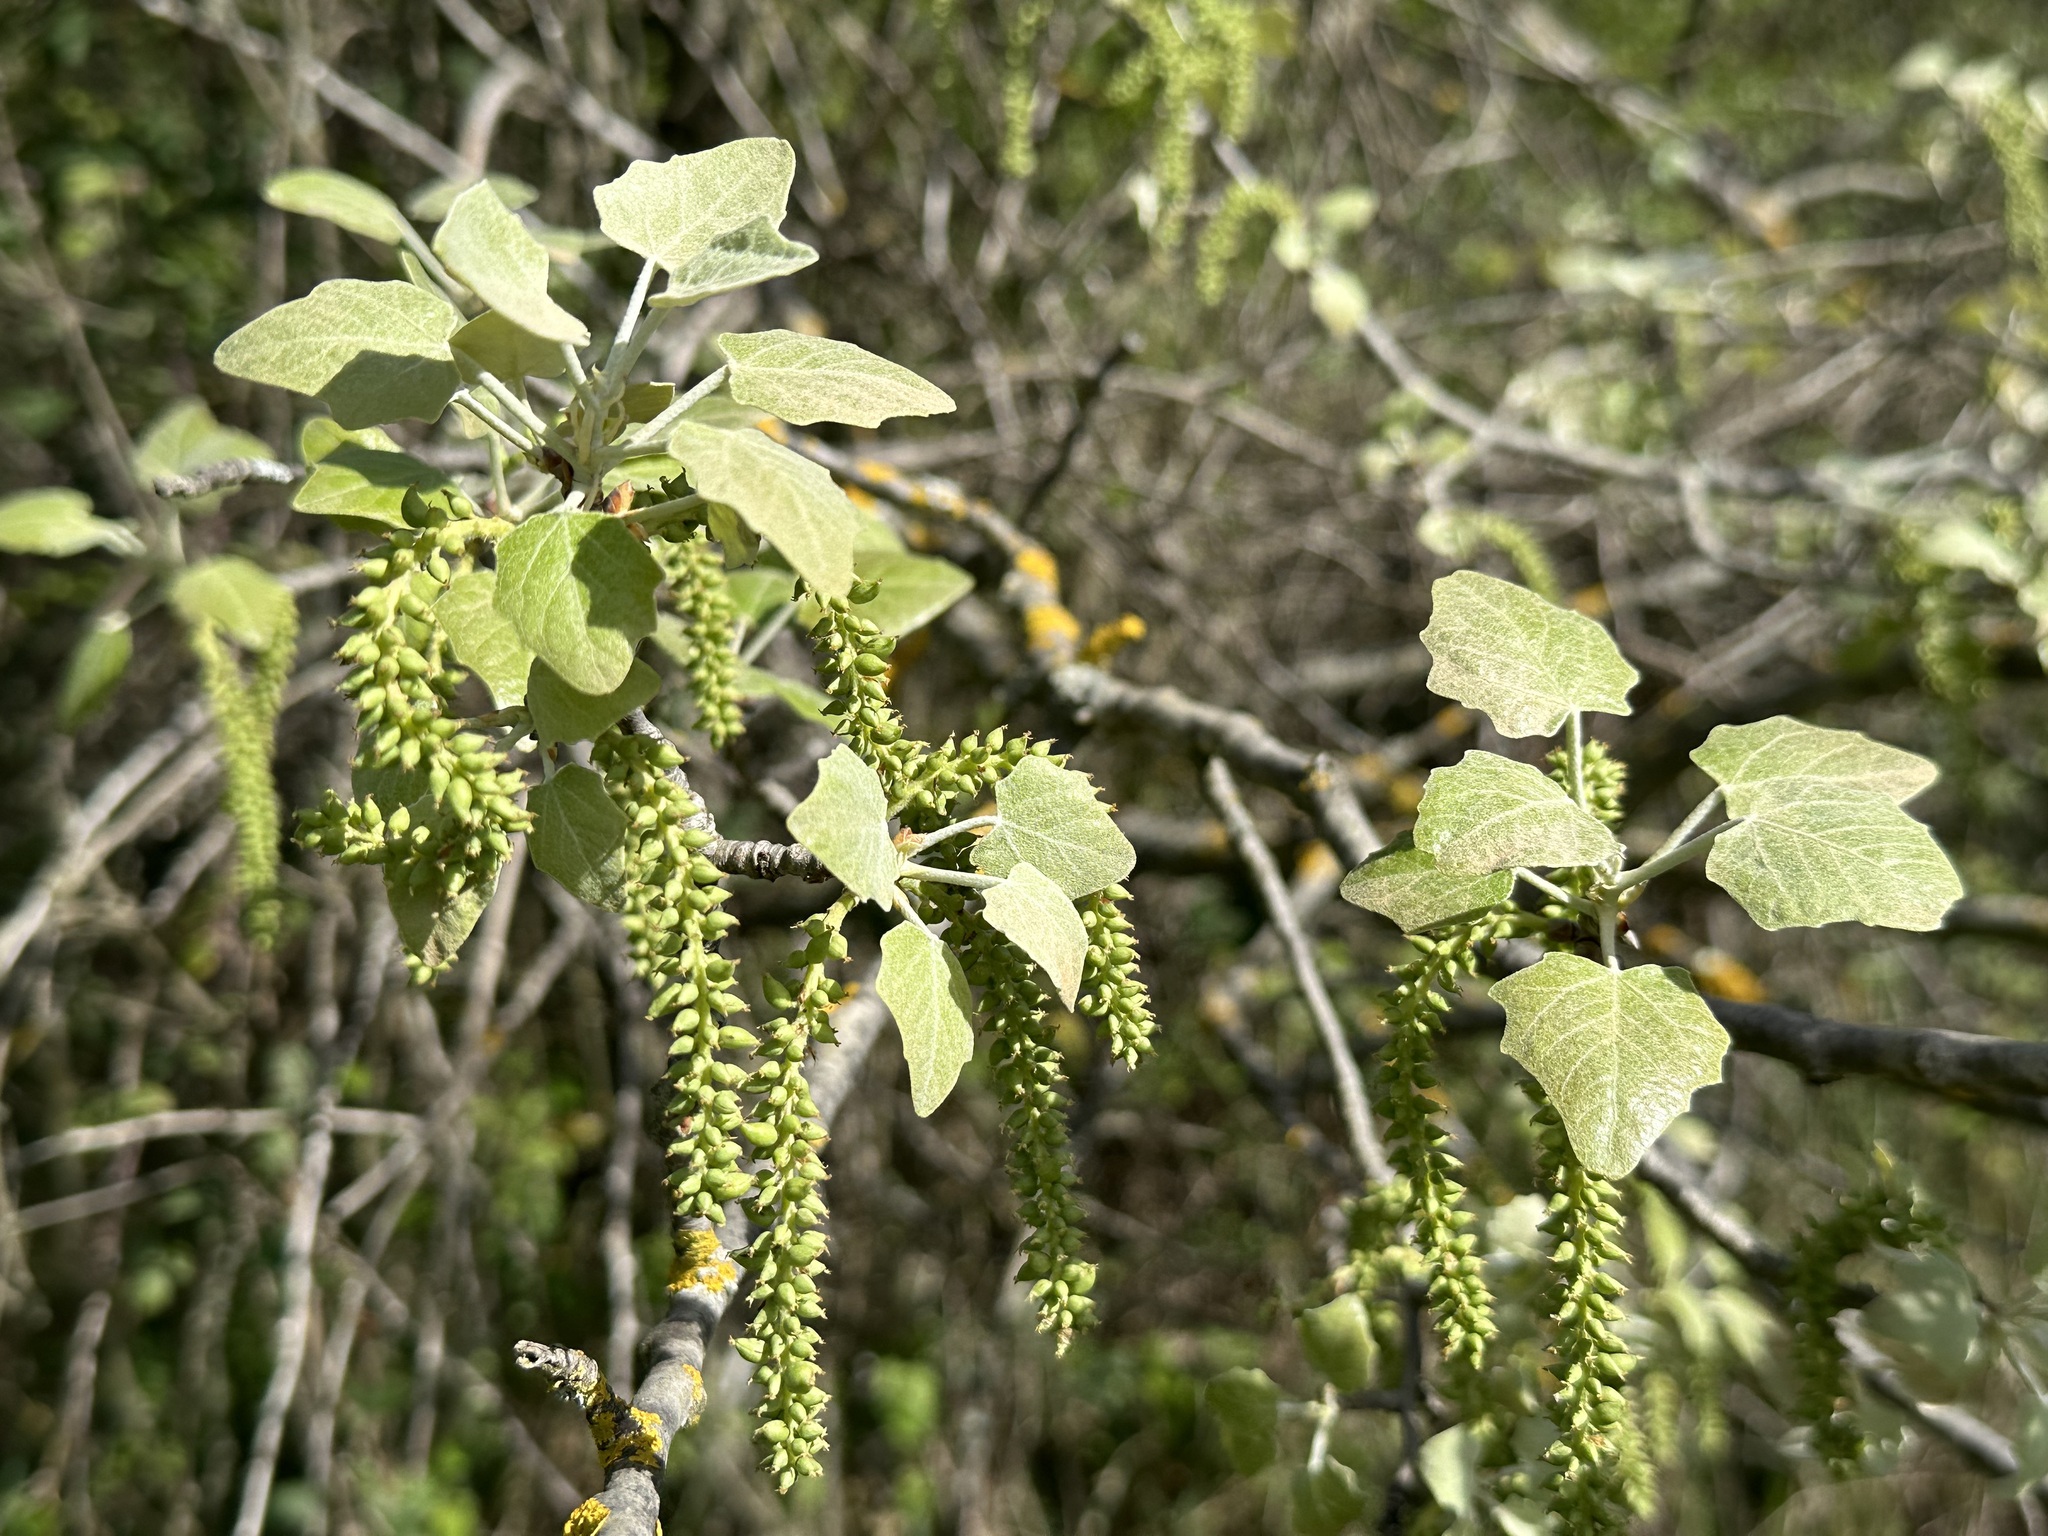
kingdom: Plantae
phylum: Tracheophyta
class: Magnoliopsida
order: Malpighiales
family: Salicaceae
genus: Populus
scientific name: Populus alba
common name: White poplar
